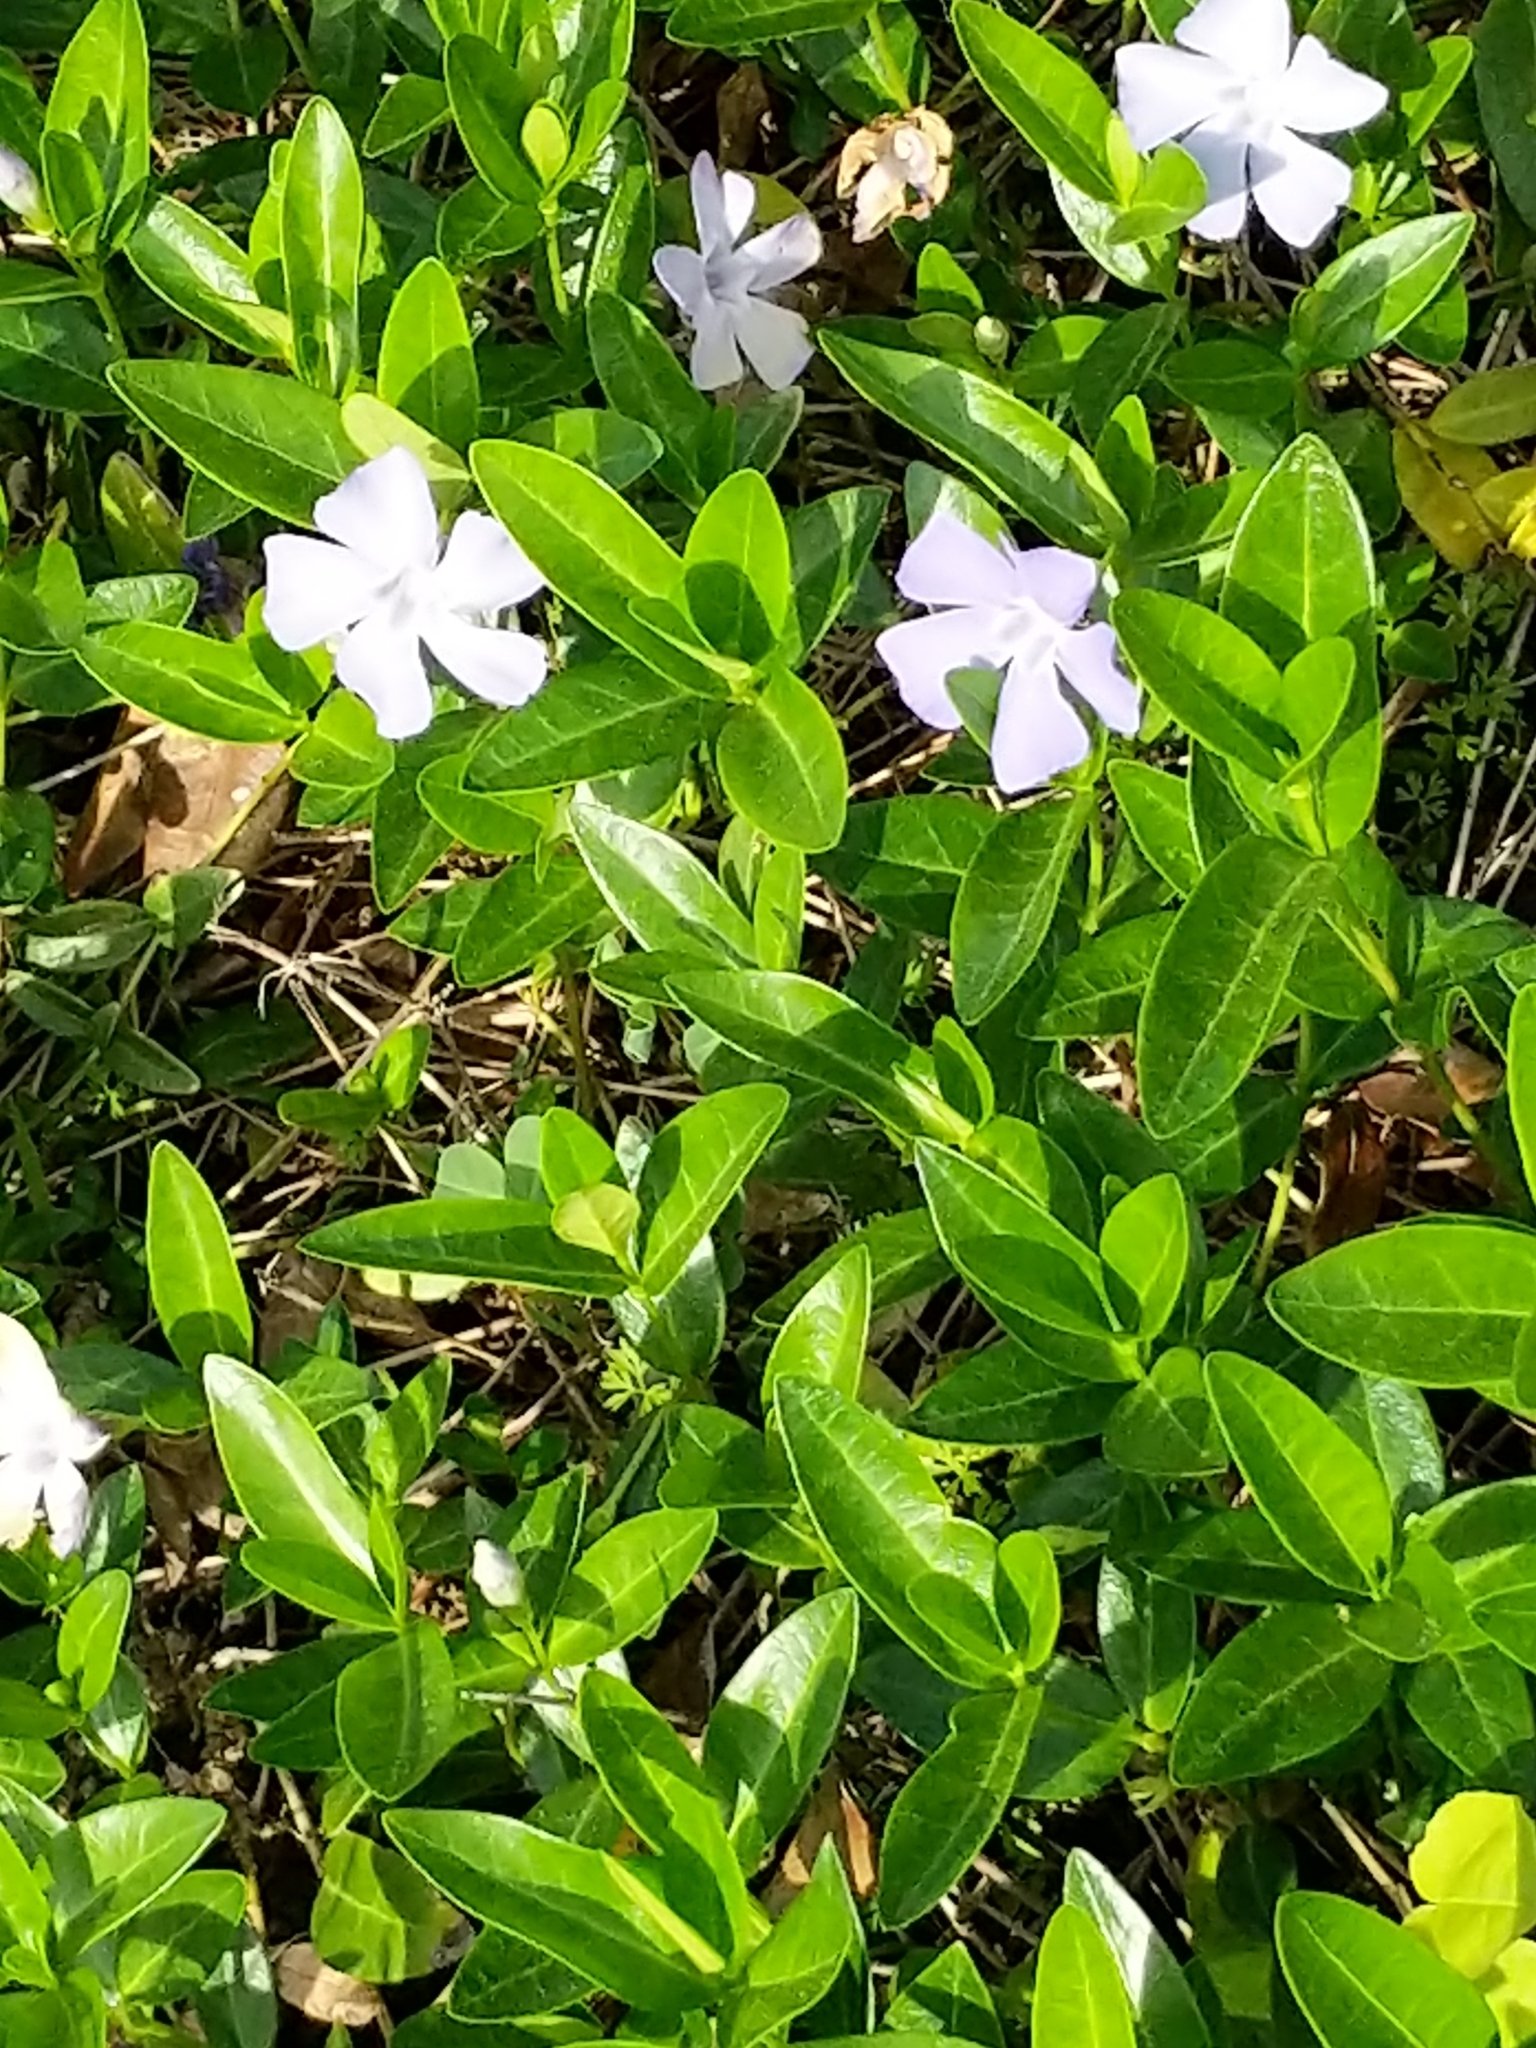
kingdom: Plantae
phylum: Tracheophyta
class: Magnoliopsida
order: Gentianales
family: Apocynaceae
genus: Vinca
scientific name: Vinca minor
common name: Lesser periwinkle
